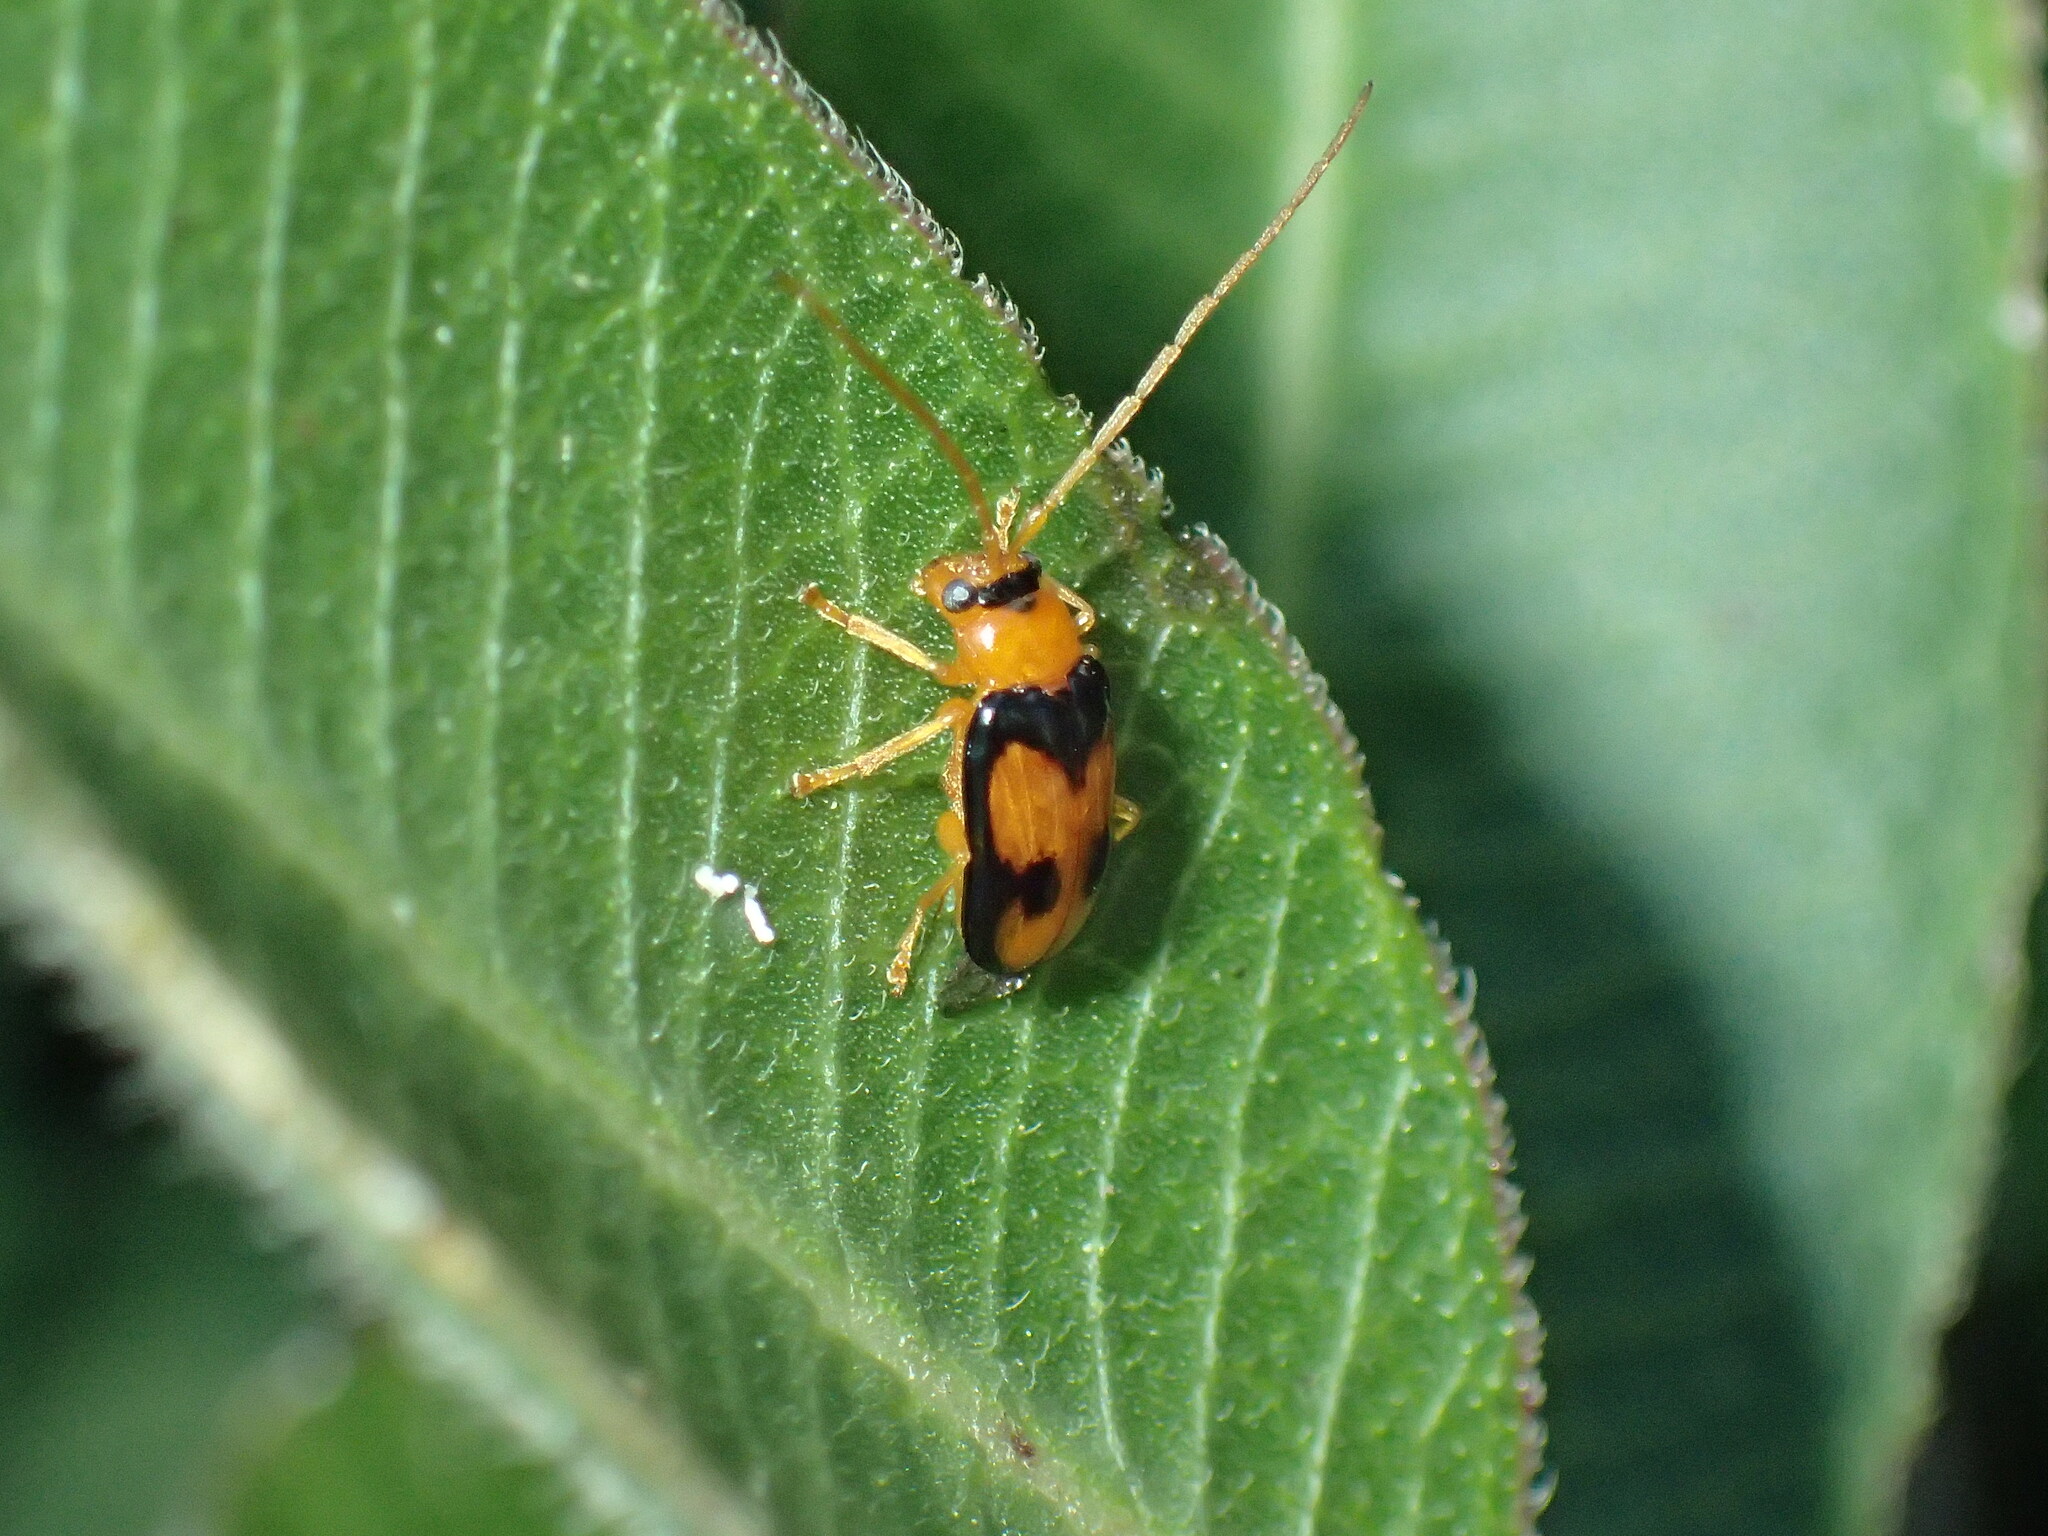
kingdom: Animalia
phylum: Arthropoda
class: Insecta
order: Coleoptera
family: Chrysomelidae
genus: Spilocephalus
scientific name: Spilocephalus
